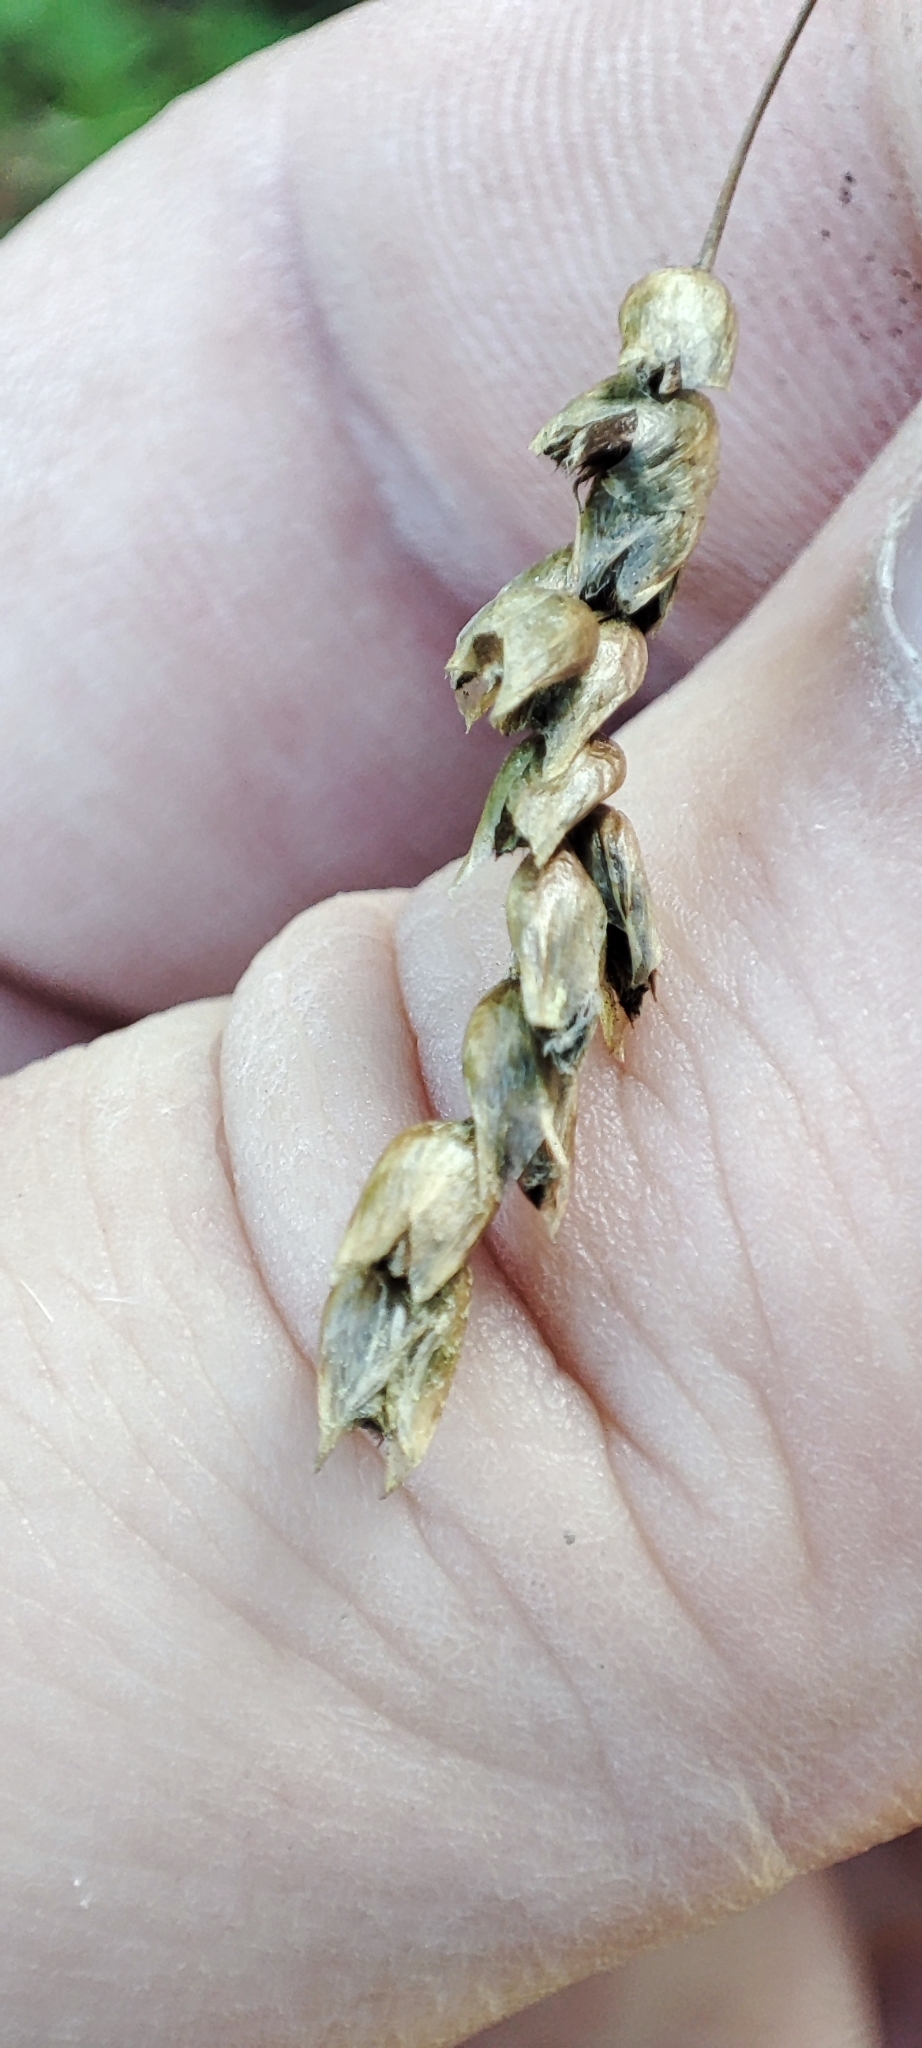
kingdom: Plantae
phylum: Tracheophyta
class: Liliopsida
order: Poales
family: Poaceae
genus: Anthoxanthum
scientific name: Anthoxanthum nitens
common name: Holy grass
